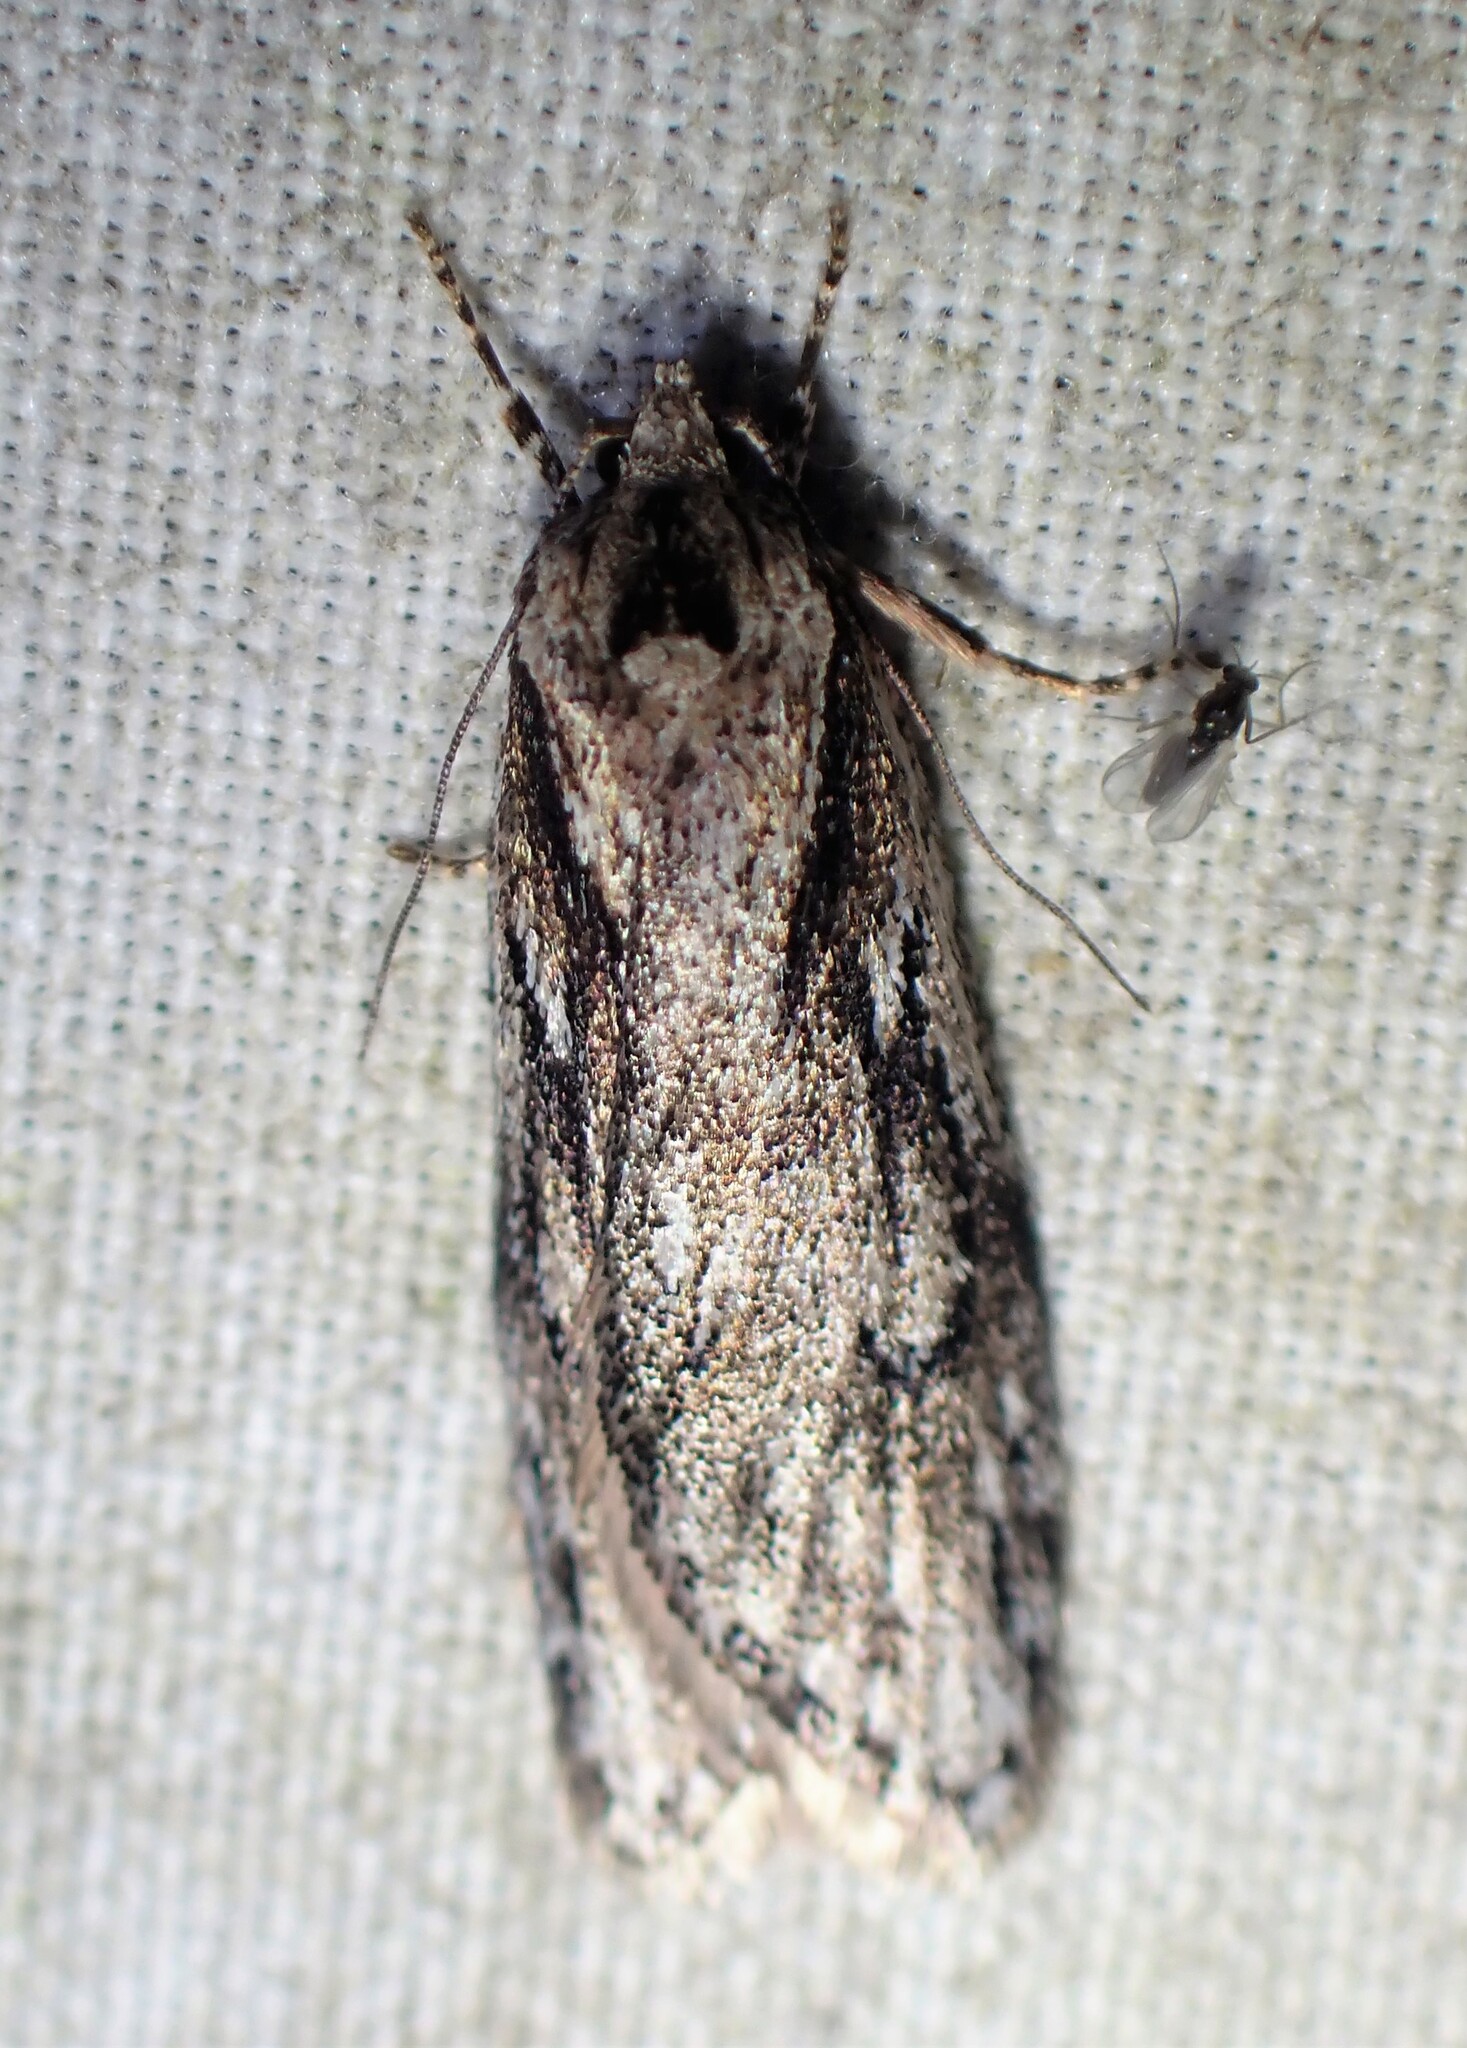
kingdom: Animalia
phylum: Arthropoda
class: Insecta
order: Lepidoptera
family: Depressariidae
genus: Semioscopis
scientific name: Semioscopis aurorella
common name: Aurora flatbody moth
